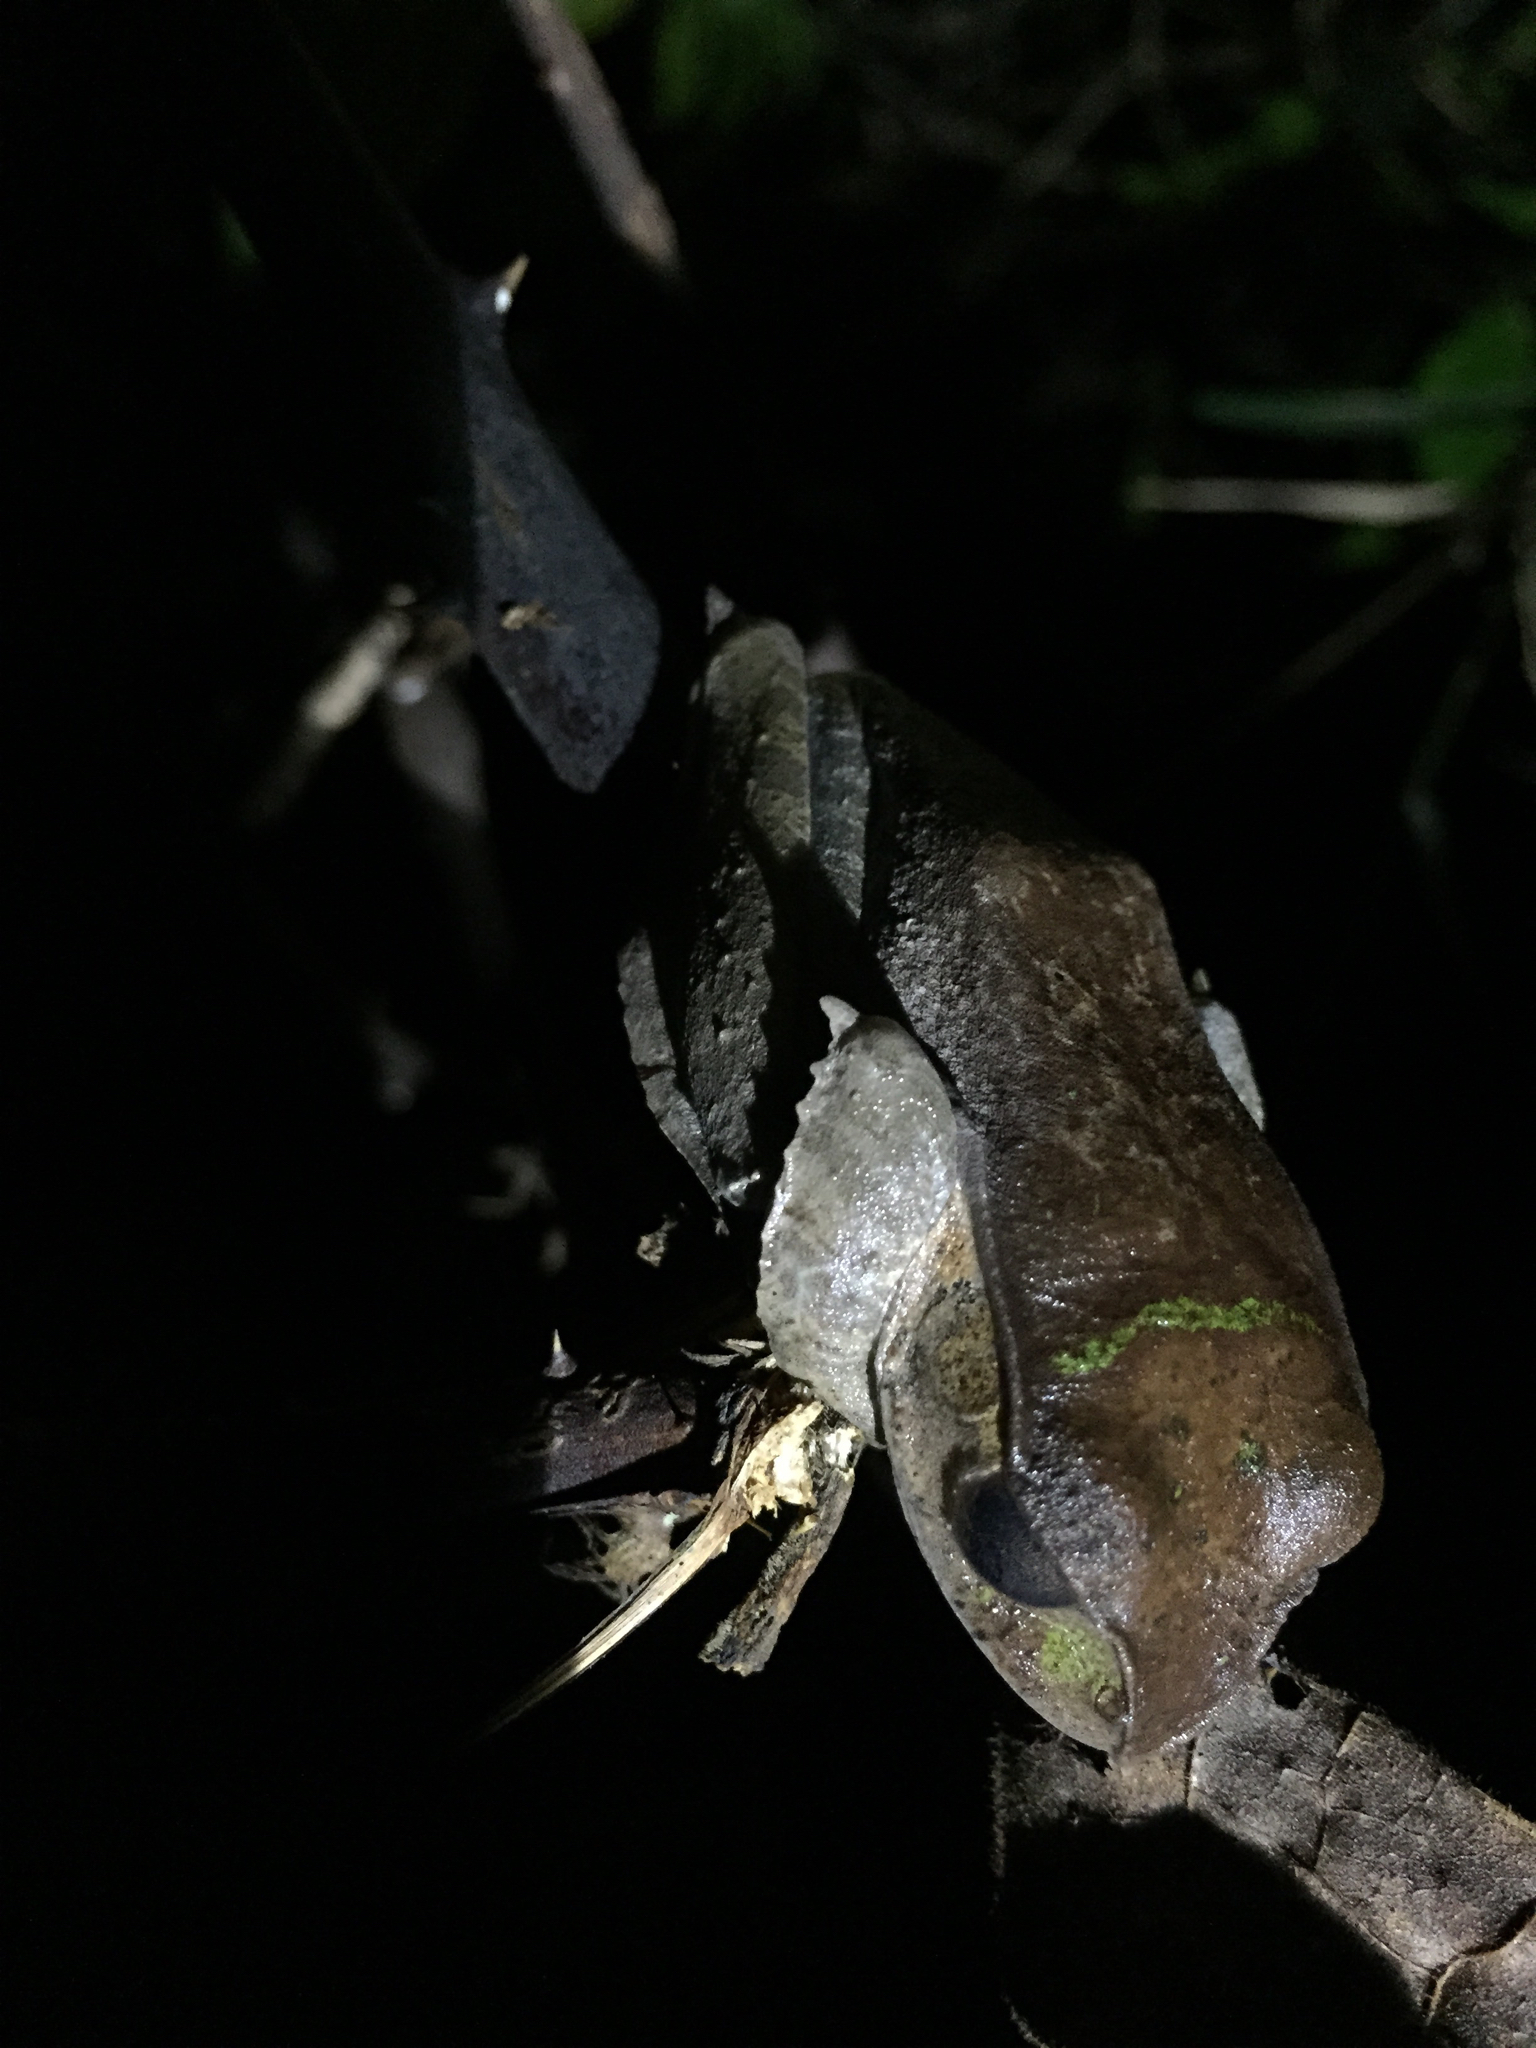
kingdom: Animalia
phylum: Chordata
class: Amphibia
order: Anura
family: Mantellidae
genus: Boophis
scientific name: Boophis madagascariensis
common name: Madagascar bright-eyed frog
